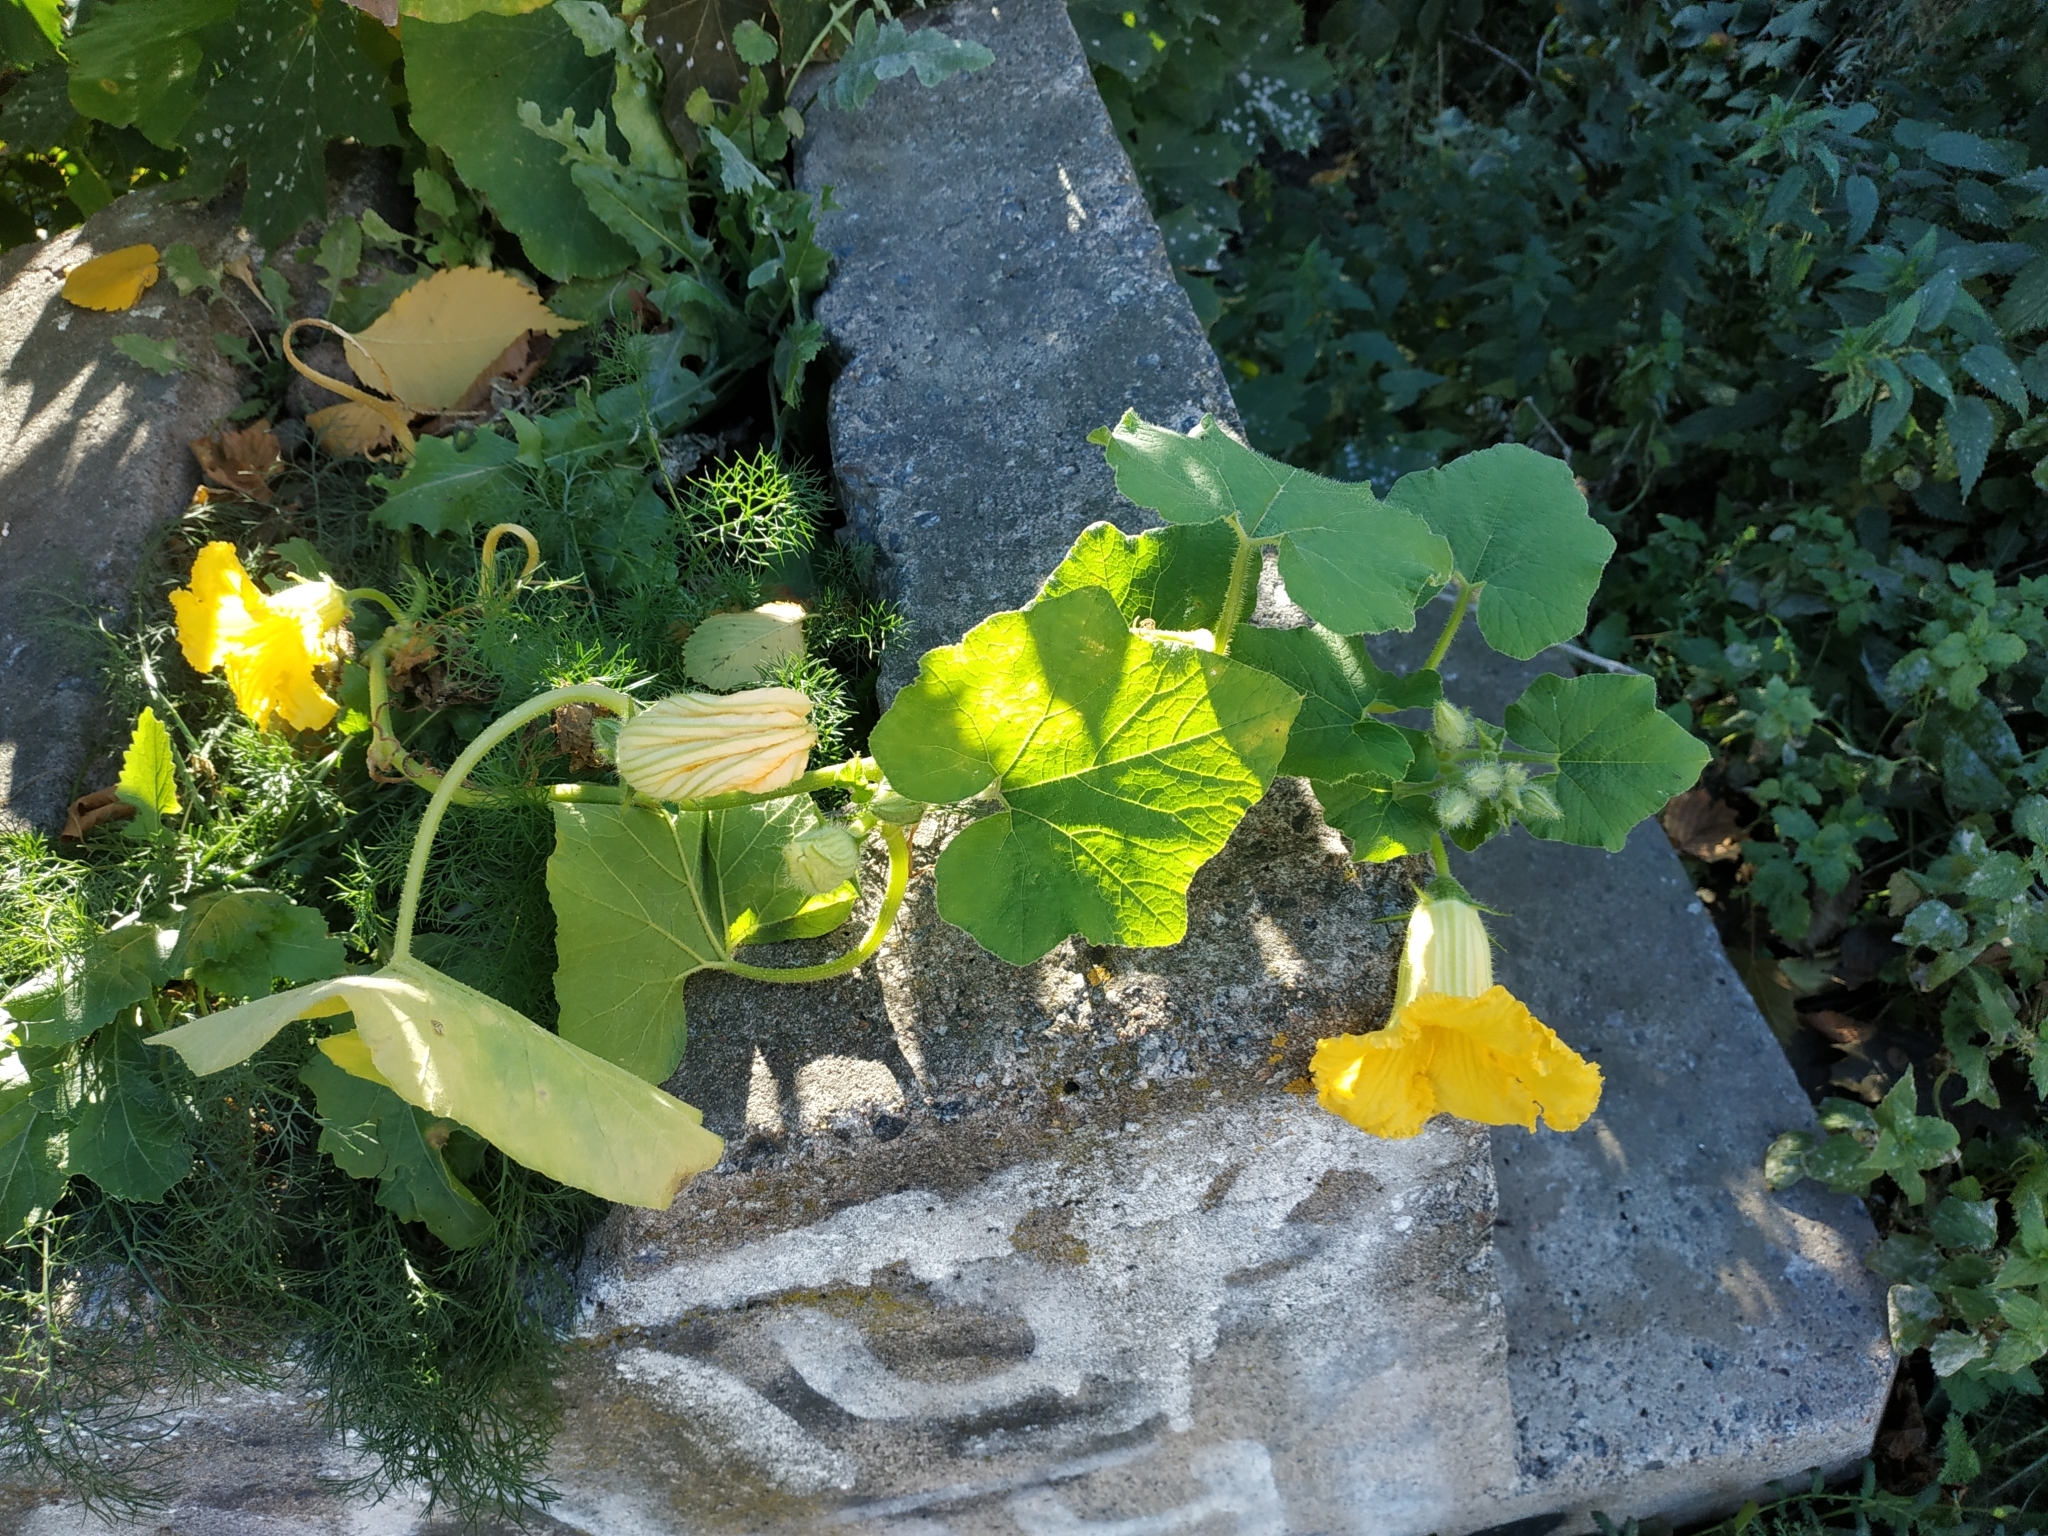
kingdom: Plantae
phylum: Tracheophyta
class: Magnoliopsida
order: Cucurbitales
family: Cucurbitaceae
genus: Cucurbita
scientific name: Cucurbita pepo
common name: Marrow
